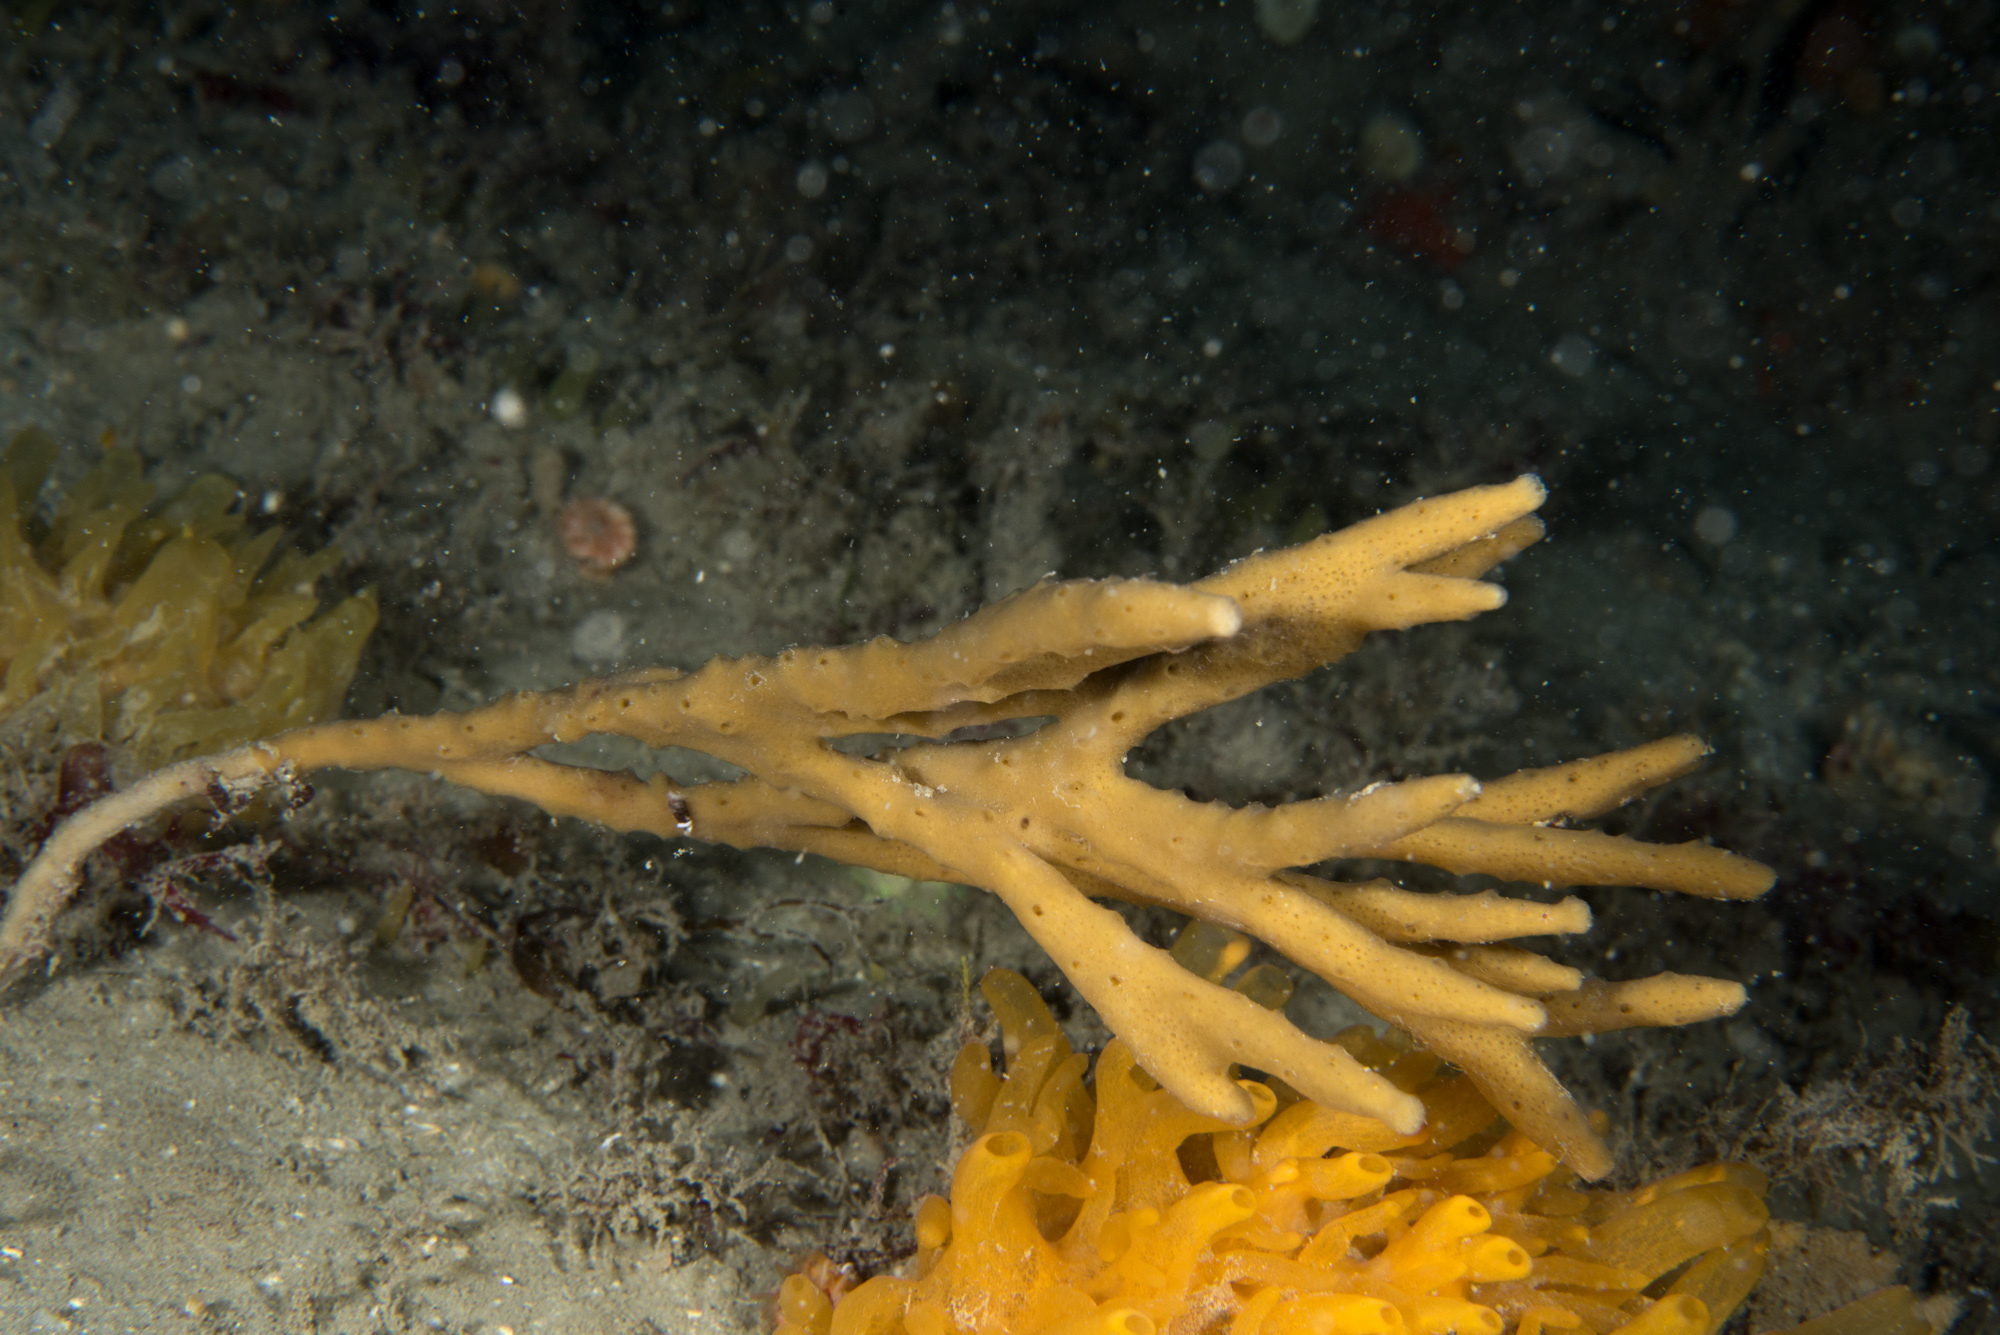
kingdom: Animalia
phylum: Porifera
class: Demospongiae
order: Haplosclerida
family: Chalinidae
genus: Haliclona
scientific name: Haliclona oculata
